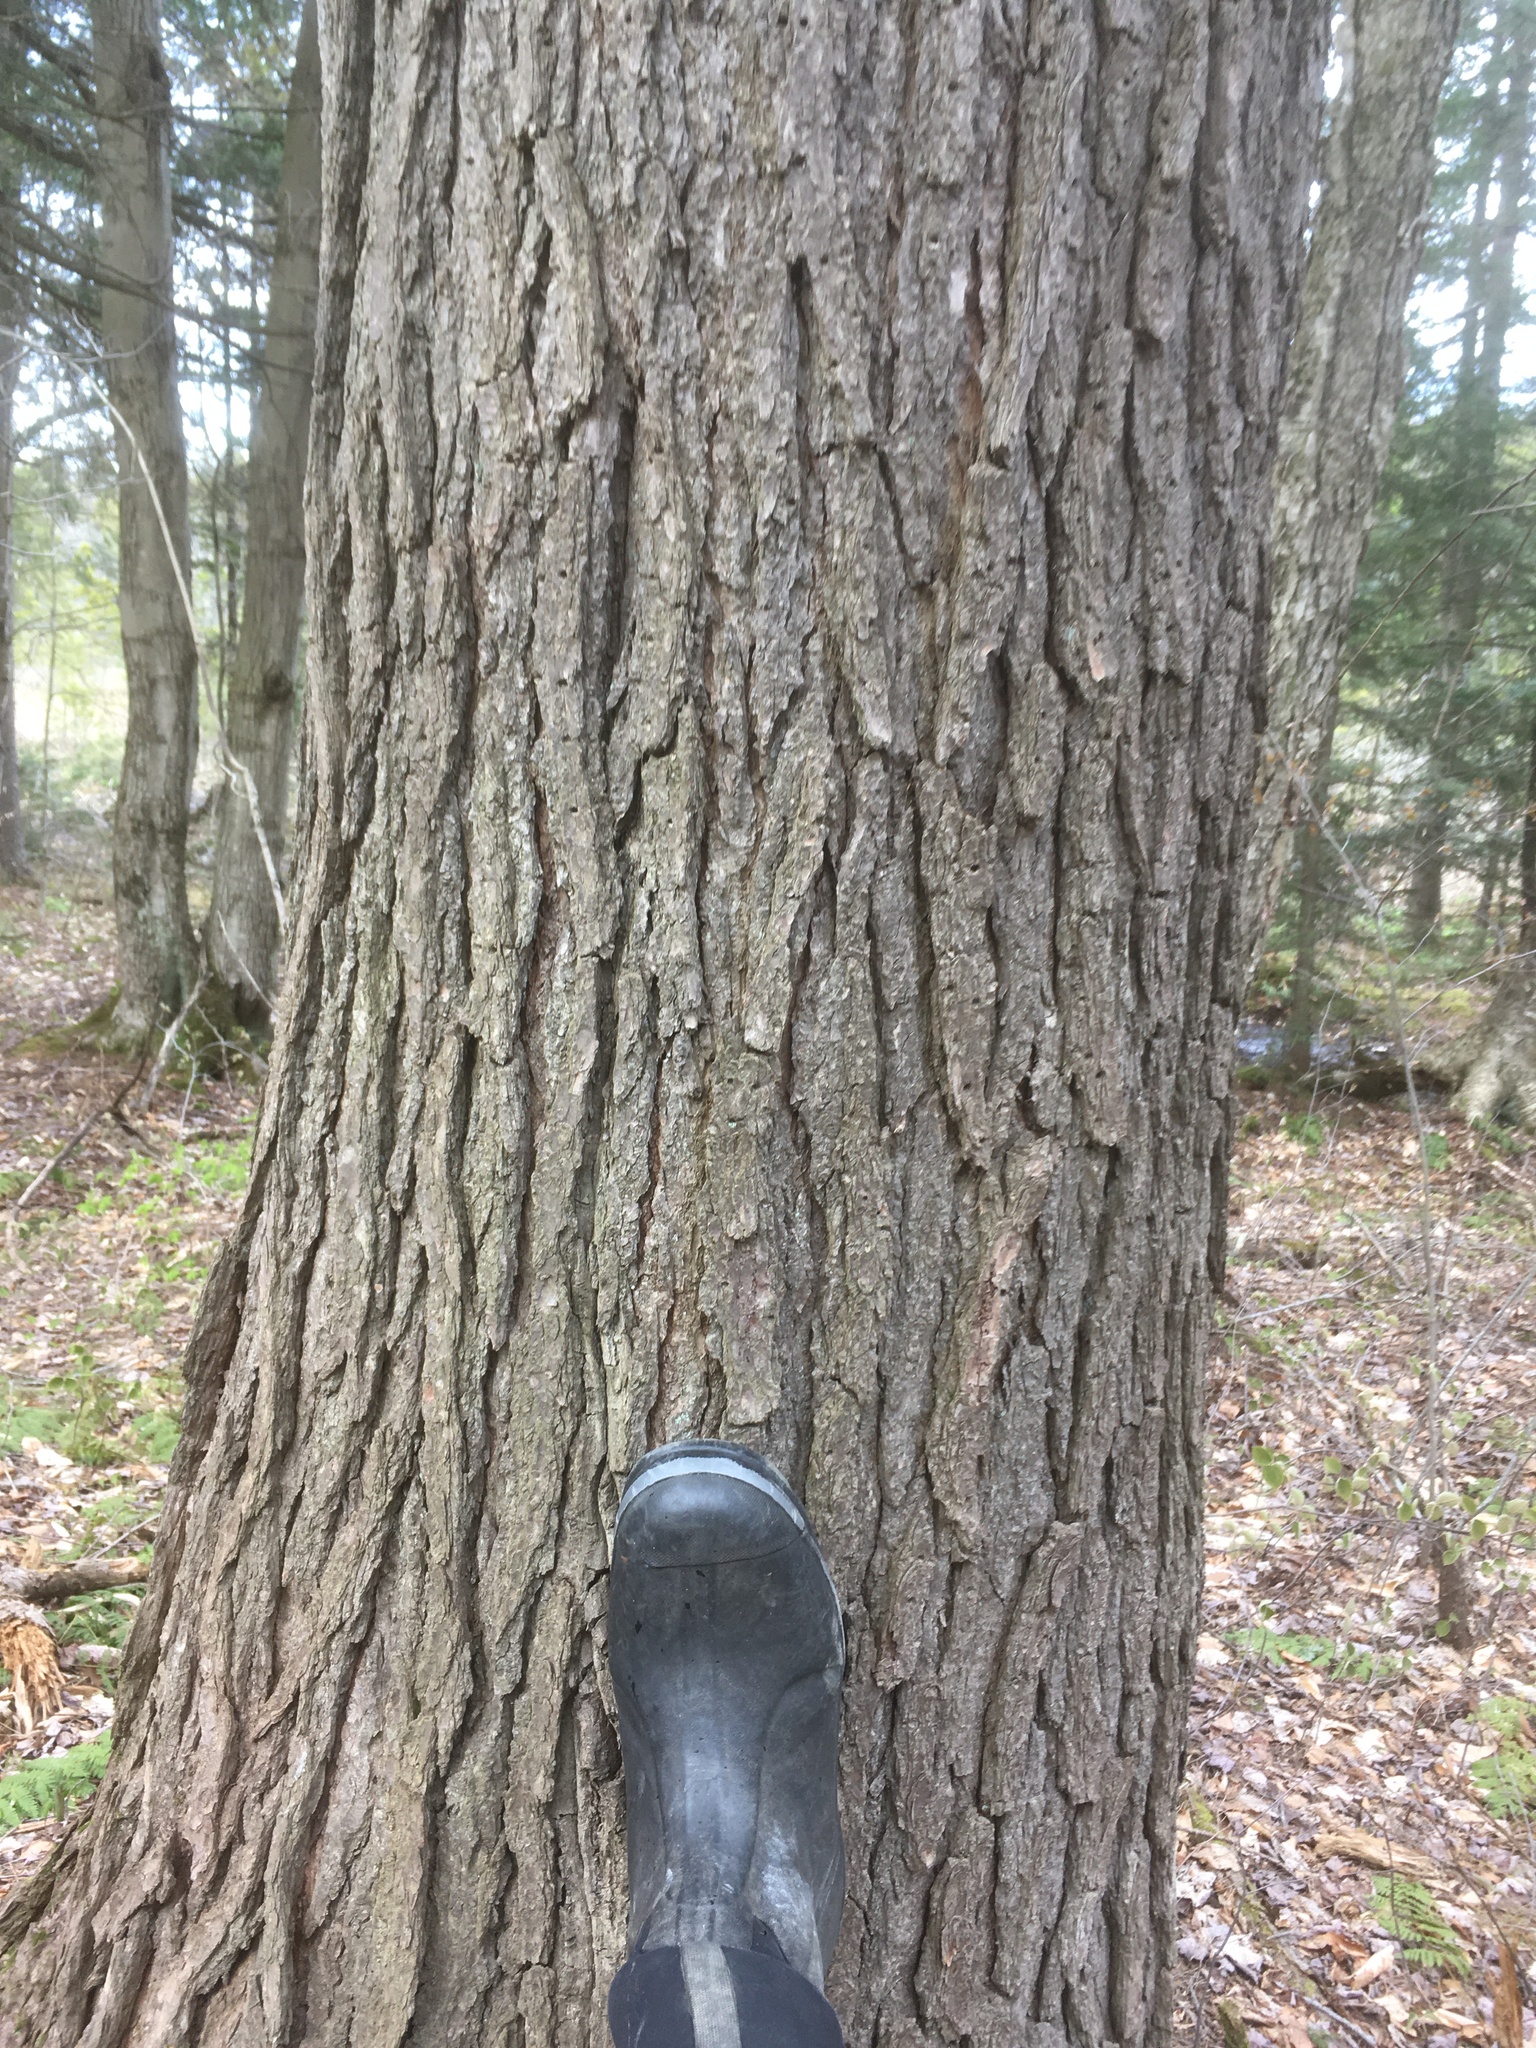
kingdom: Plantae
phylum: Tracheophyta
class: Pinopsida
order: Pinales
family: Pinaceae
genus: Tsuga
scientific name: Tsuga canadensis
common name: Eastern hemlock
